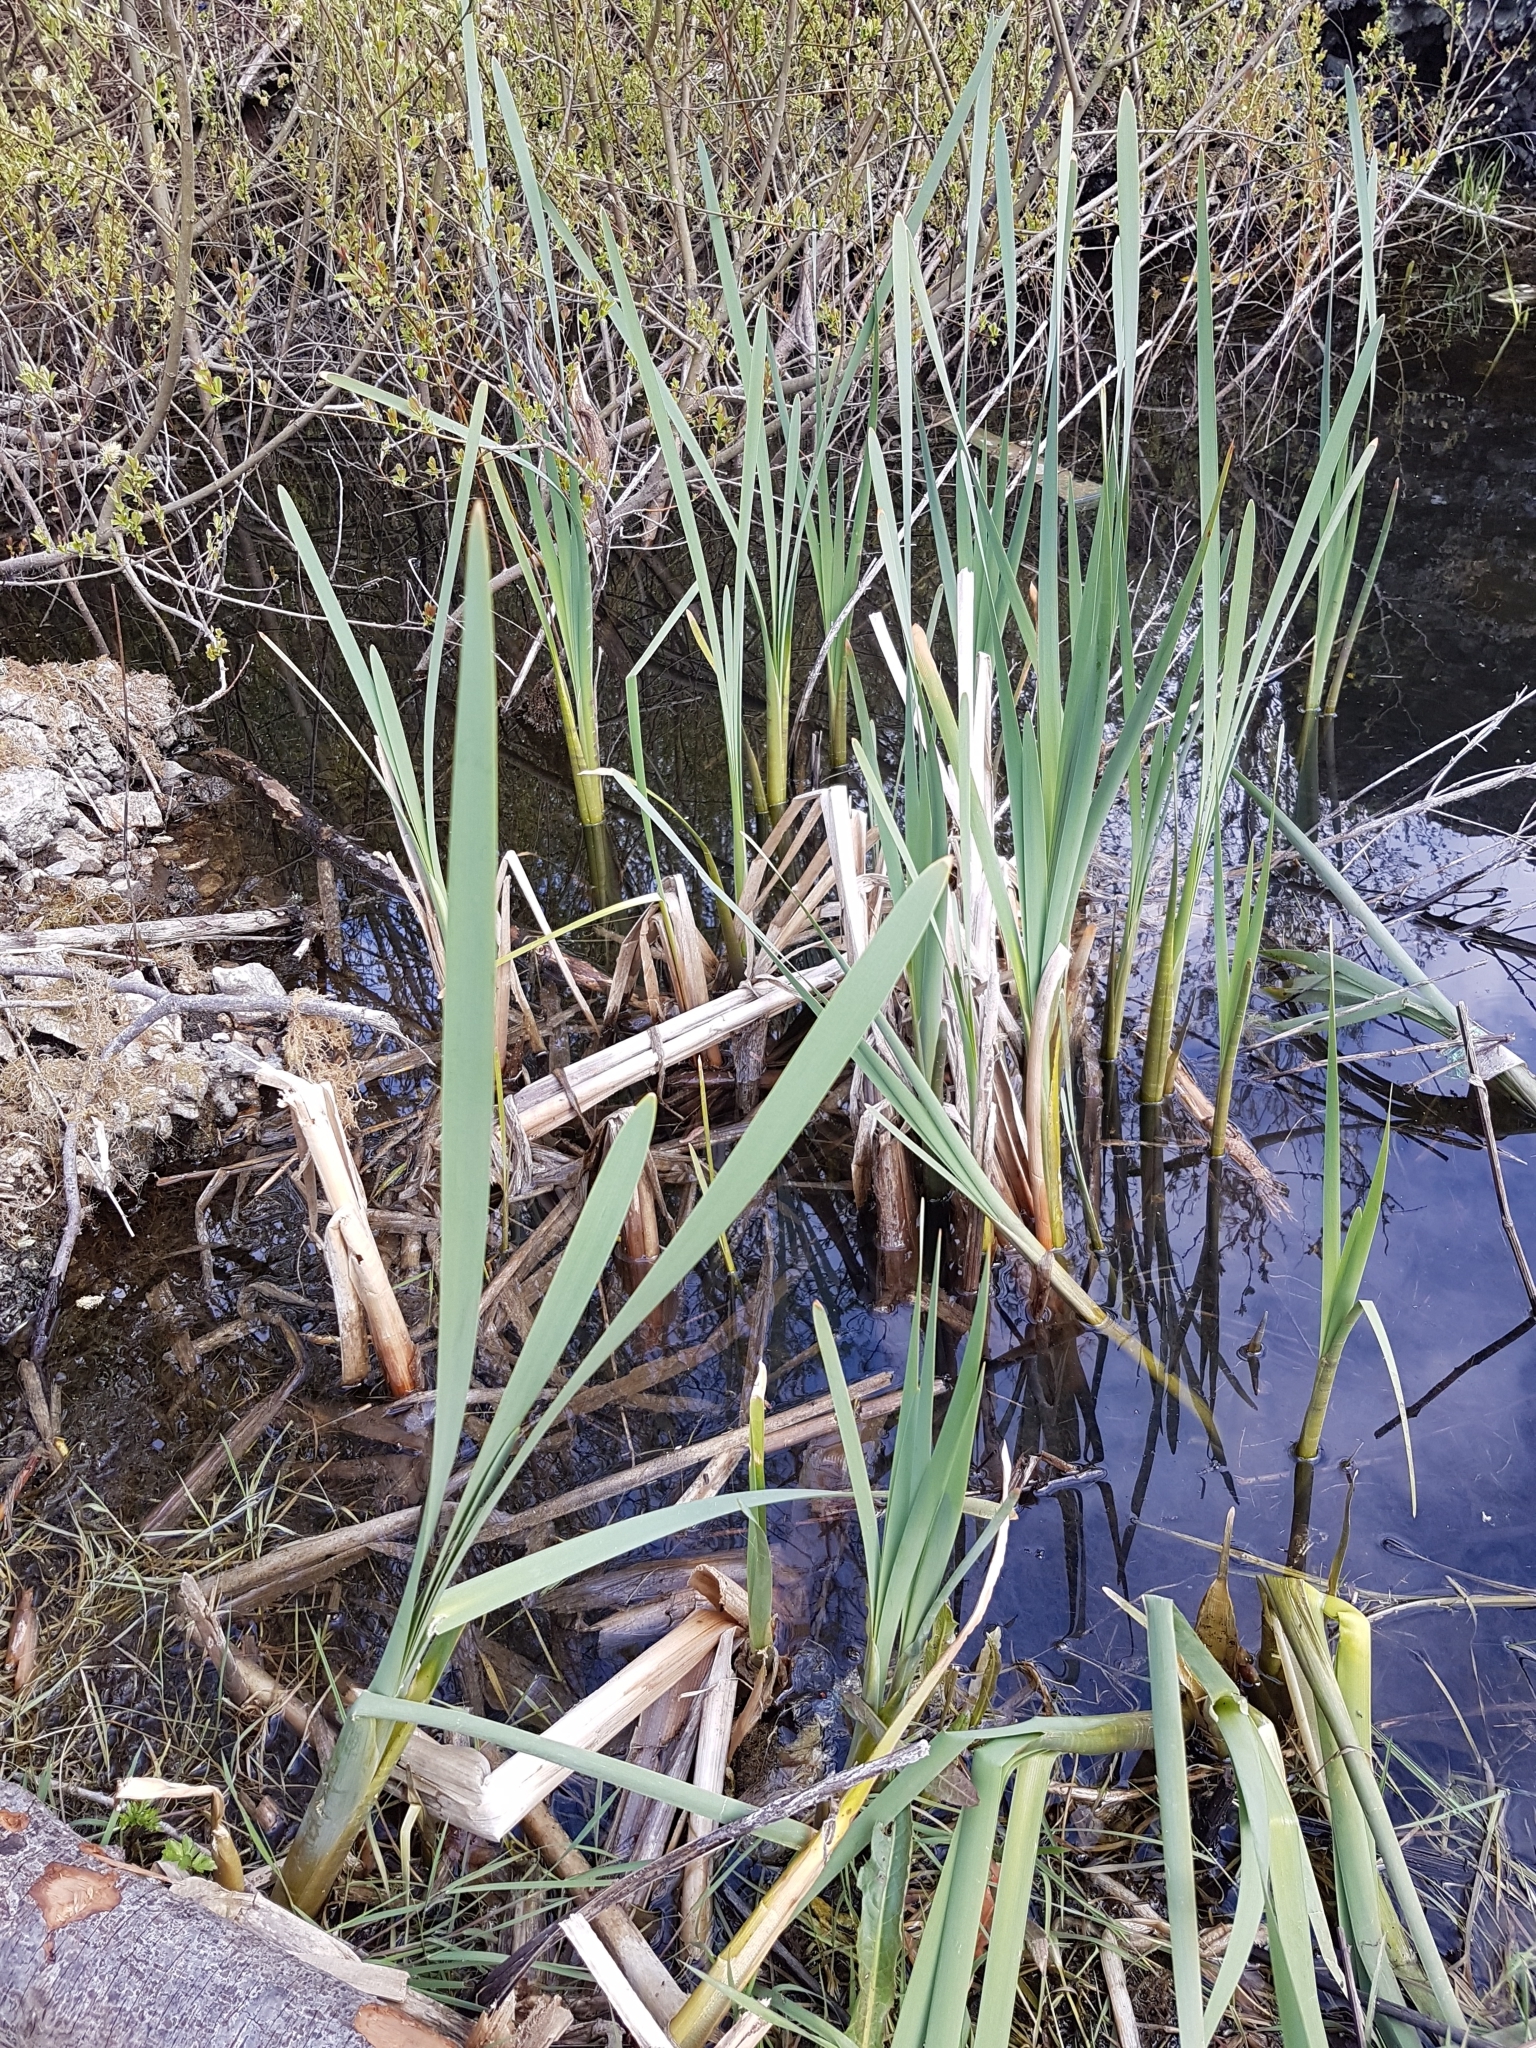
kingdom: Plantae
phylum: Tracheophyta
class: Liliopsida
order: Poales
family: Typhaceae
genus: Typha
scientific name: Typha latifolia
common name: Broadleaf cattail
